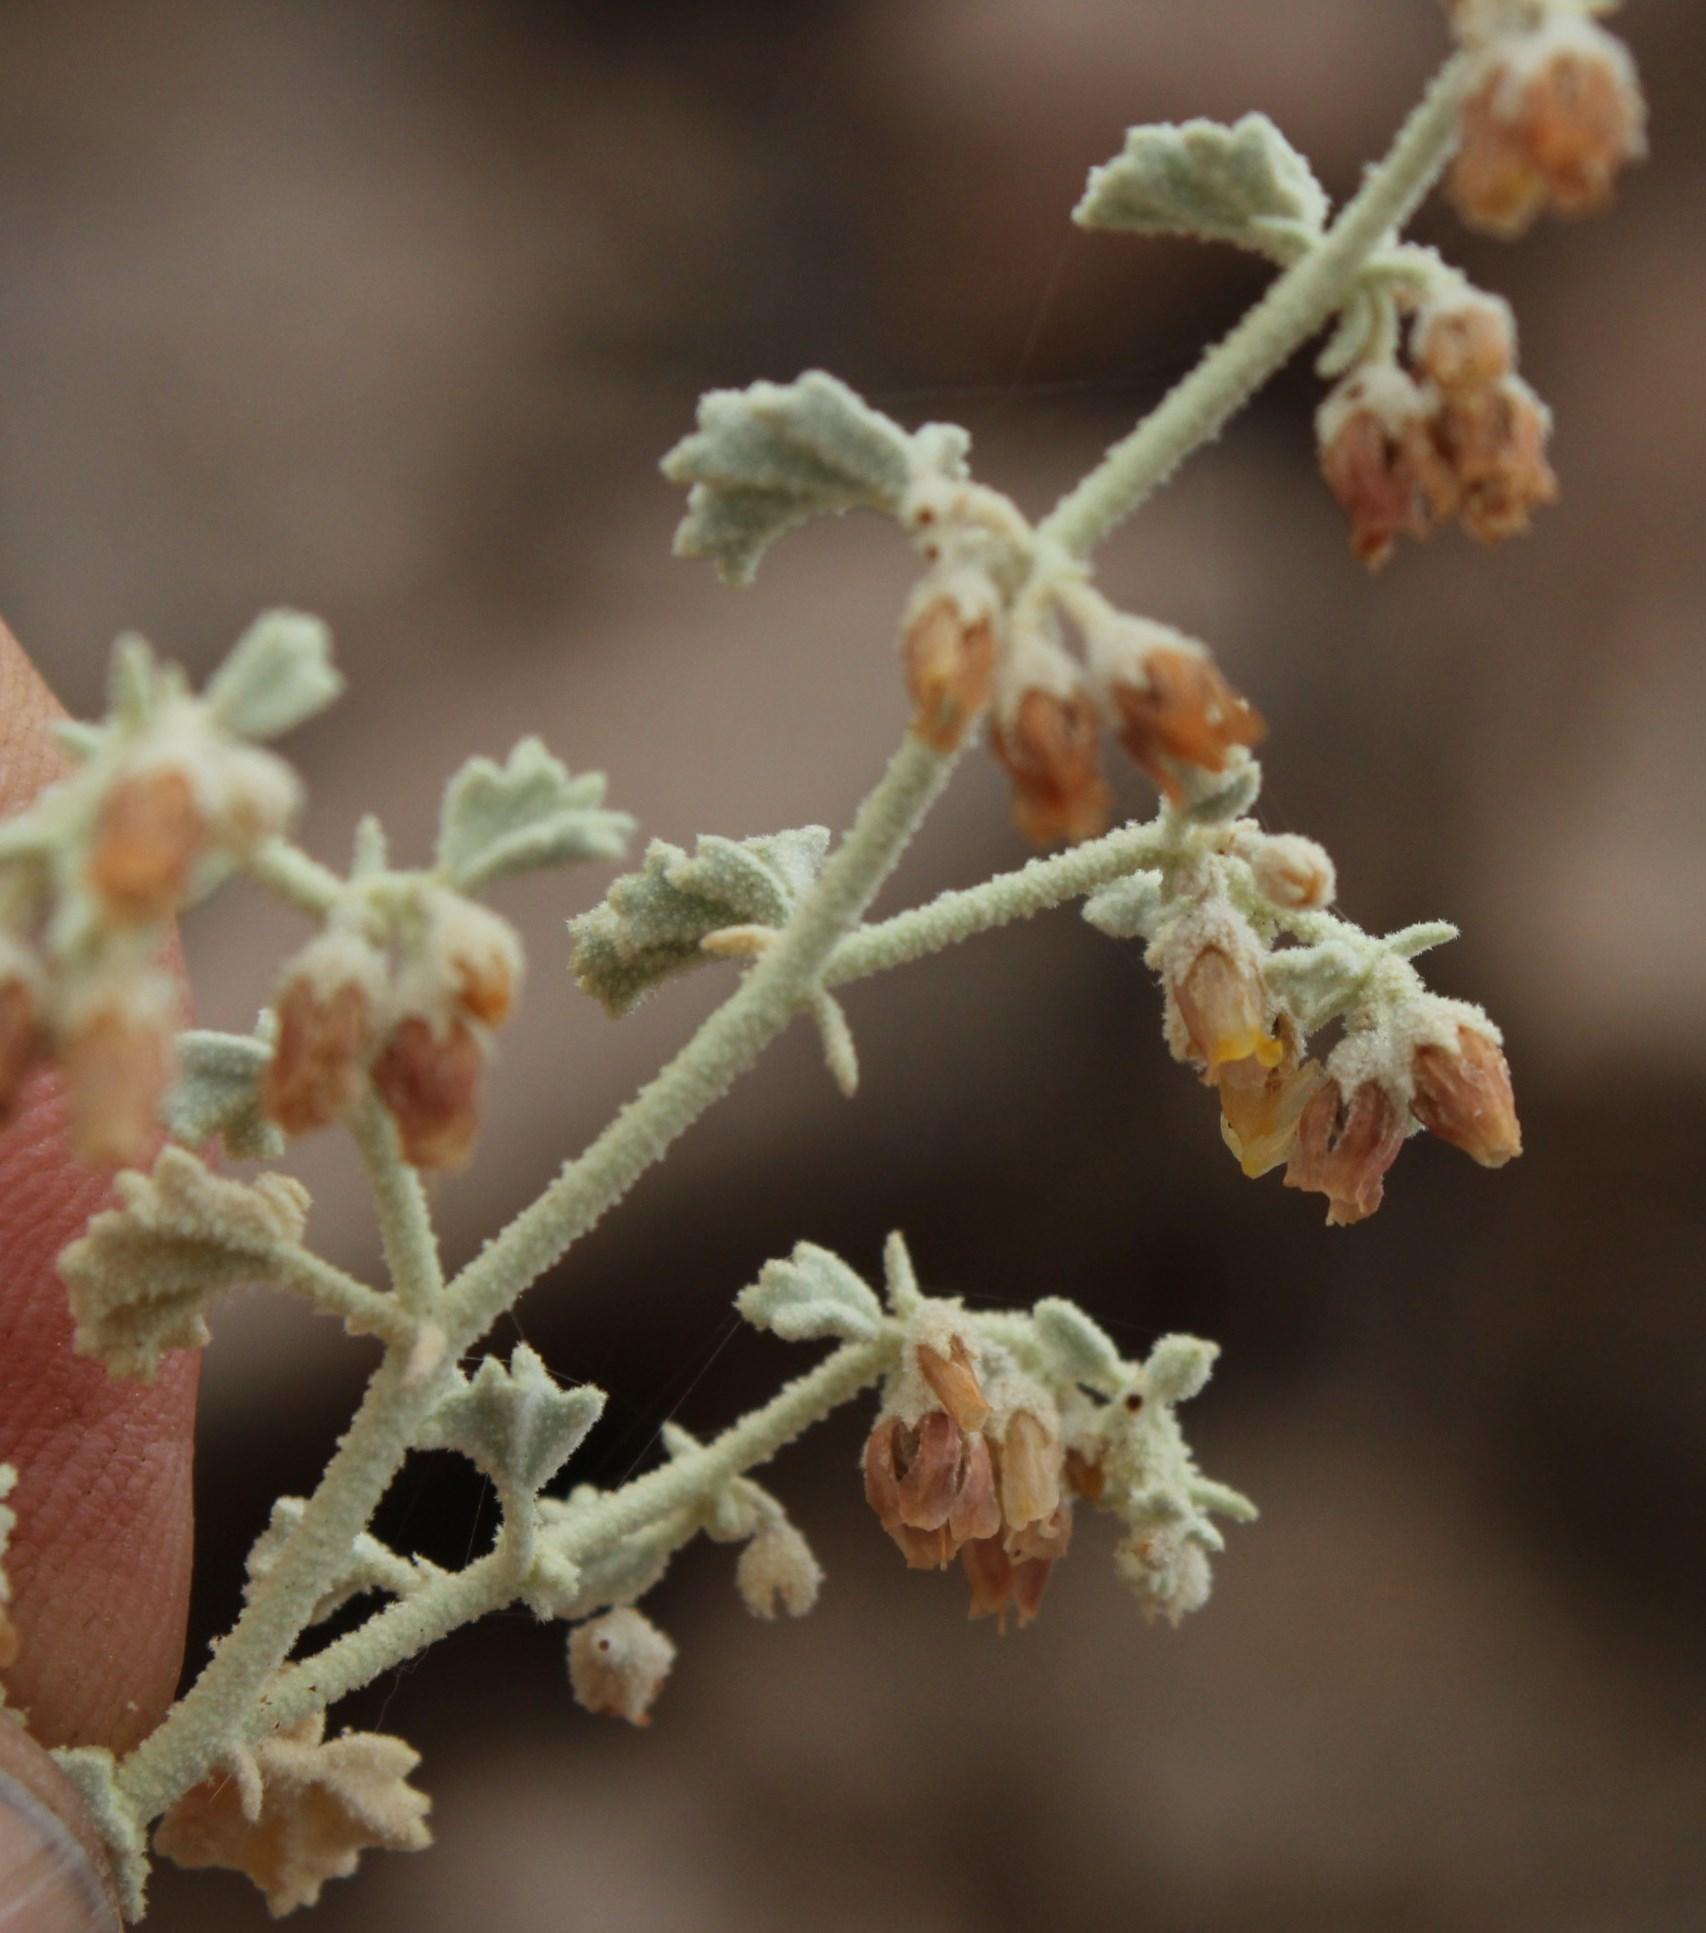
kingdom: Plantae
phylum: Tracheophyta
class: Magnoliopsida
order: Malvales
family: Malvaceae
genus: Hermannia
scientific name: Hermannia minutiflora
